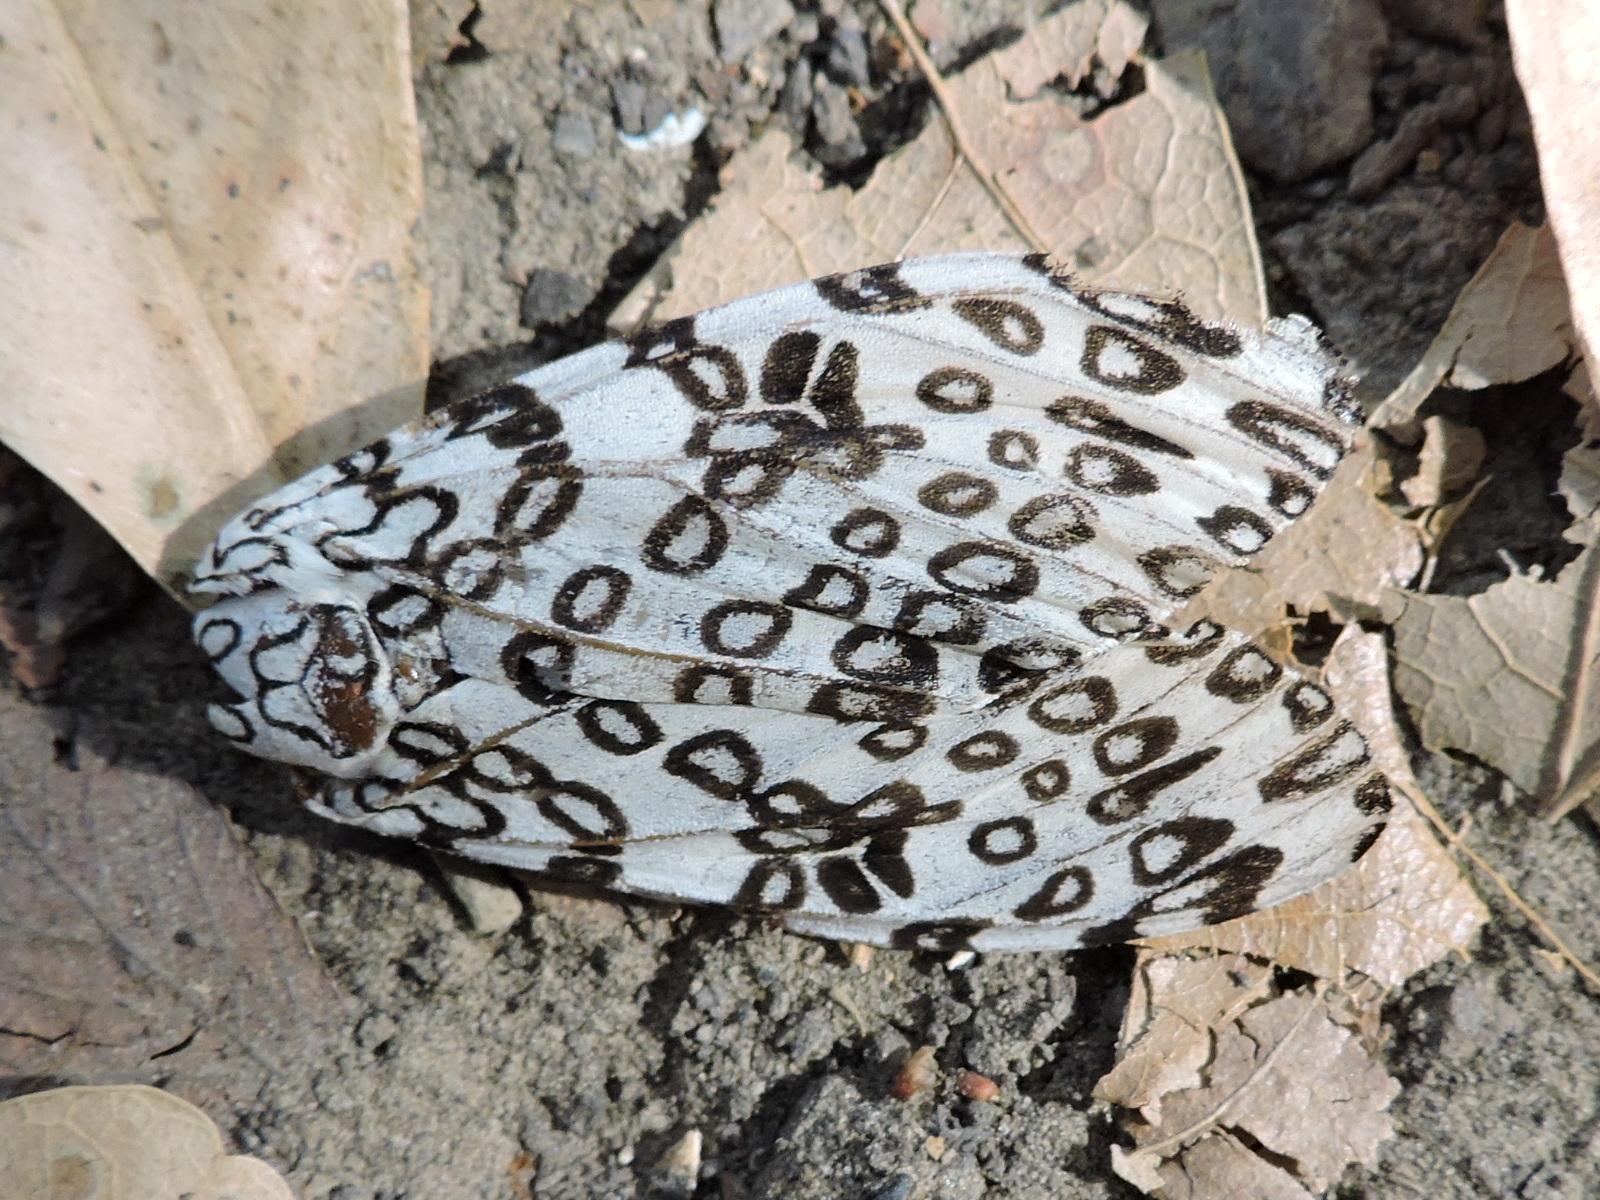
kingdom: Animalia
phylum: Arthropoda
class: Insecta
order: Lepidoptera
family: Erebidae
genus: Hypercompe
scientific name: Hypercompe scribonia
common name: Giant leopard moth
